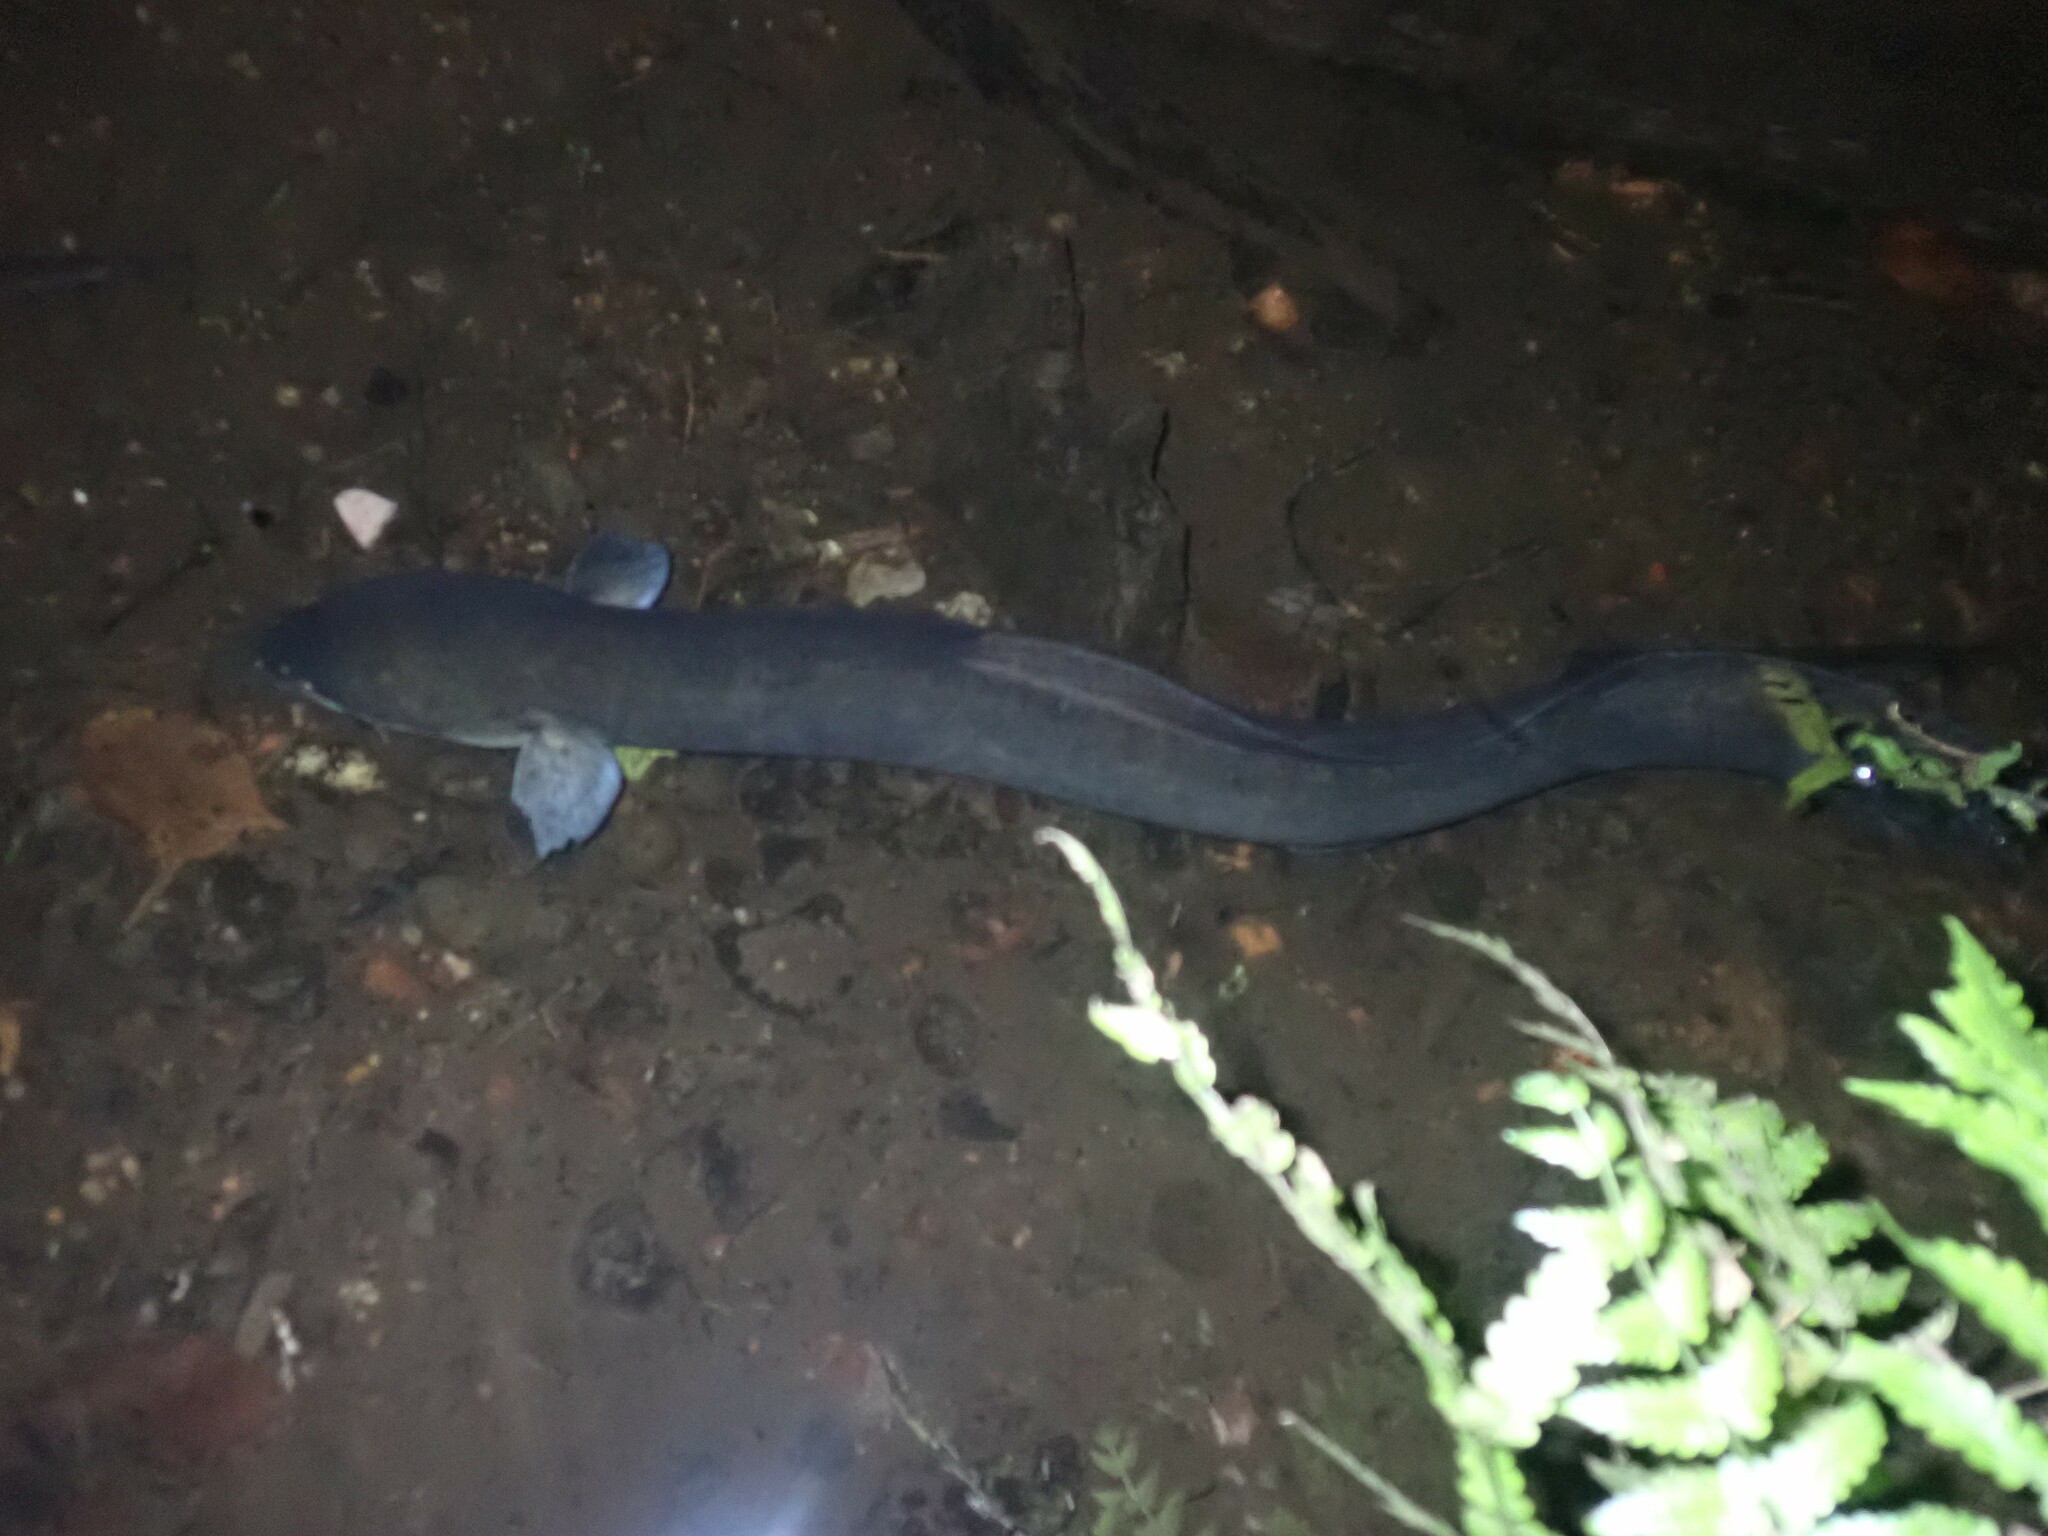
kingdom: Animalia
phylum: Chordata
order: Anguilliformes
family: Anguillidae
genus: Anguilla
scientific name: Anguilla dieffenbachii
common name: New zealand longfin eel
